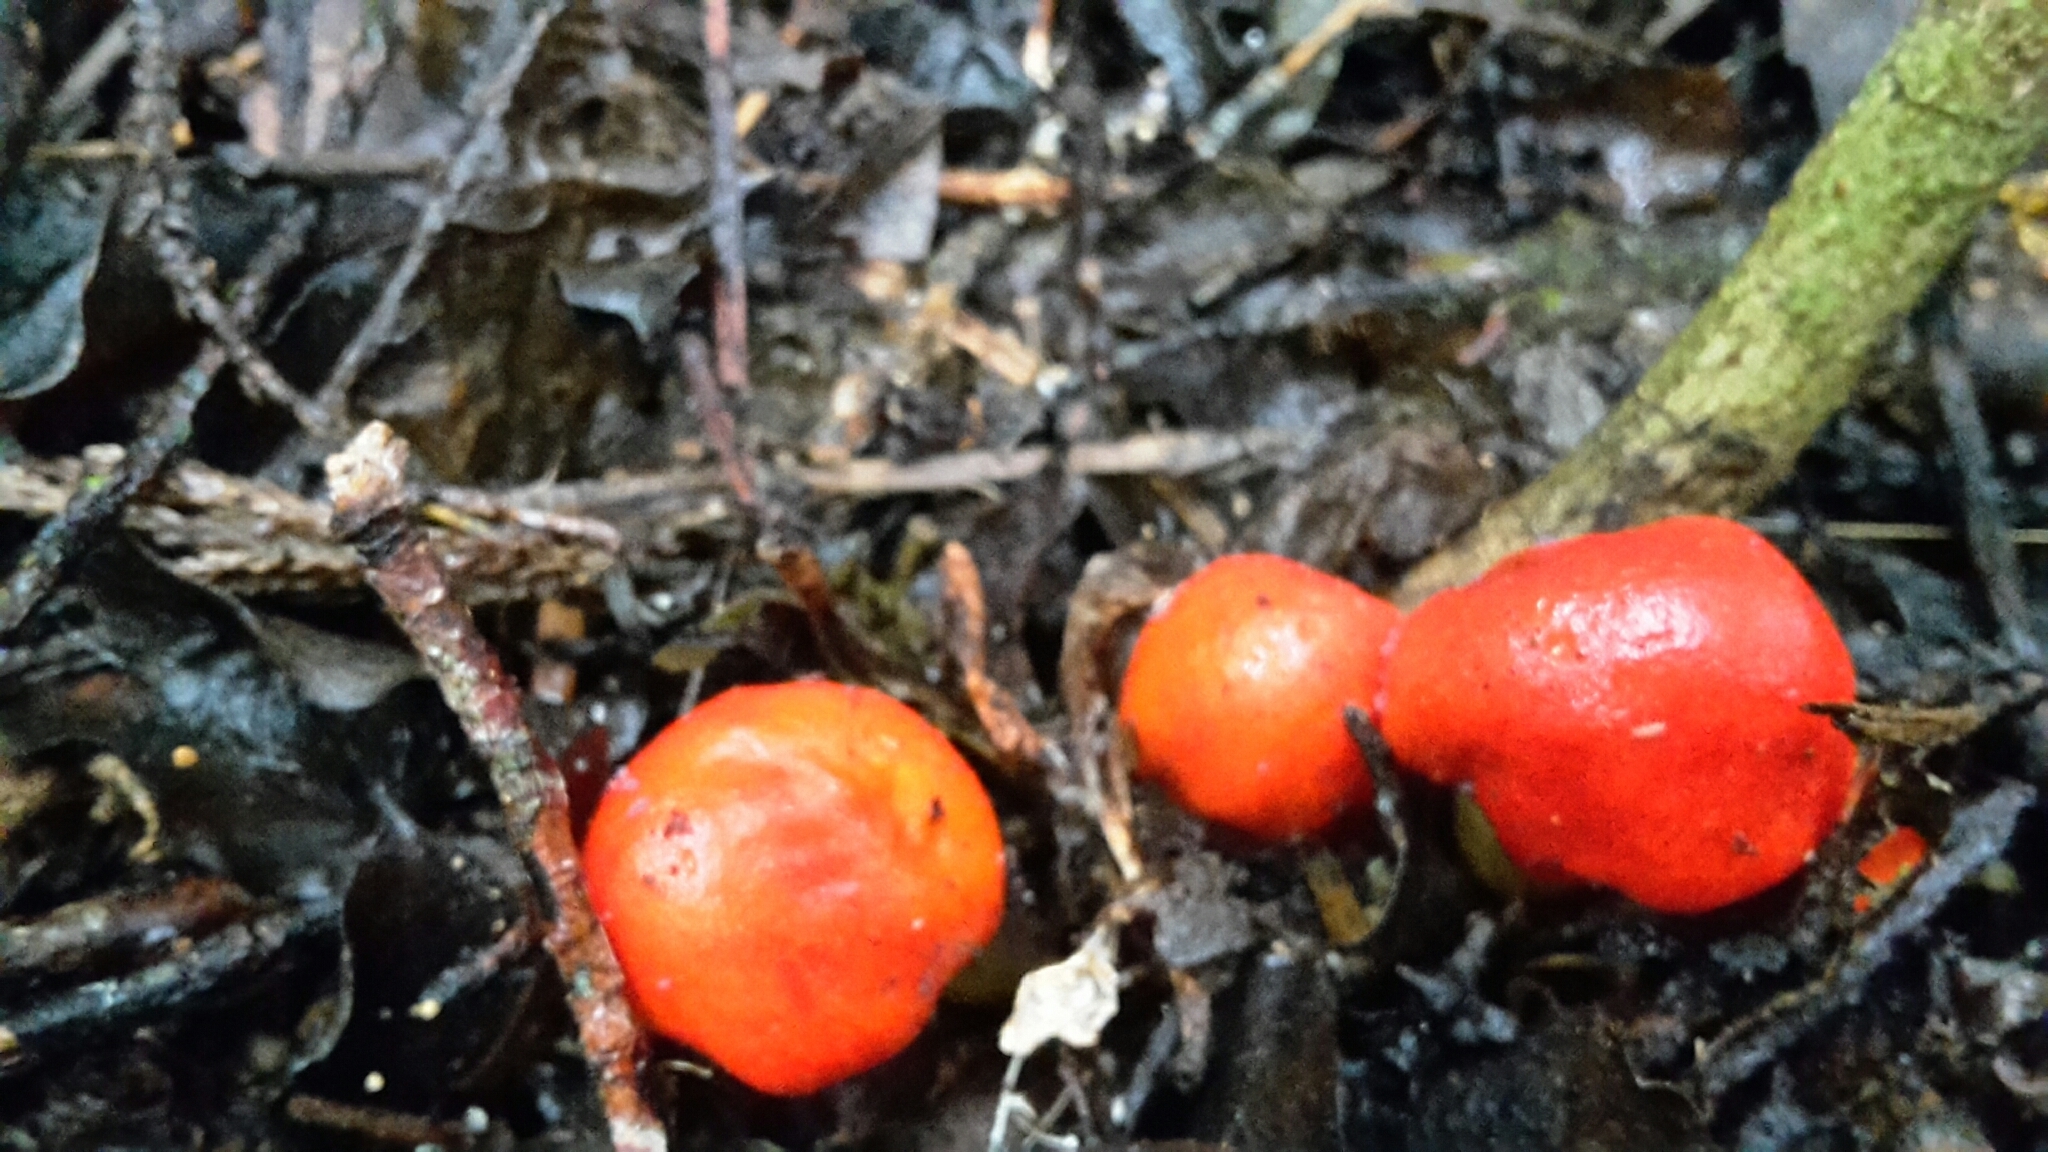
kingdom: Fungi
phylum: Basidiomycota
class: Agaricomycetes
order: Agaricales
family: Strophariaceae
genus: Leratiomyces
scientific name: Leratiomyces erythrocephalus
